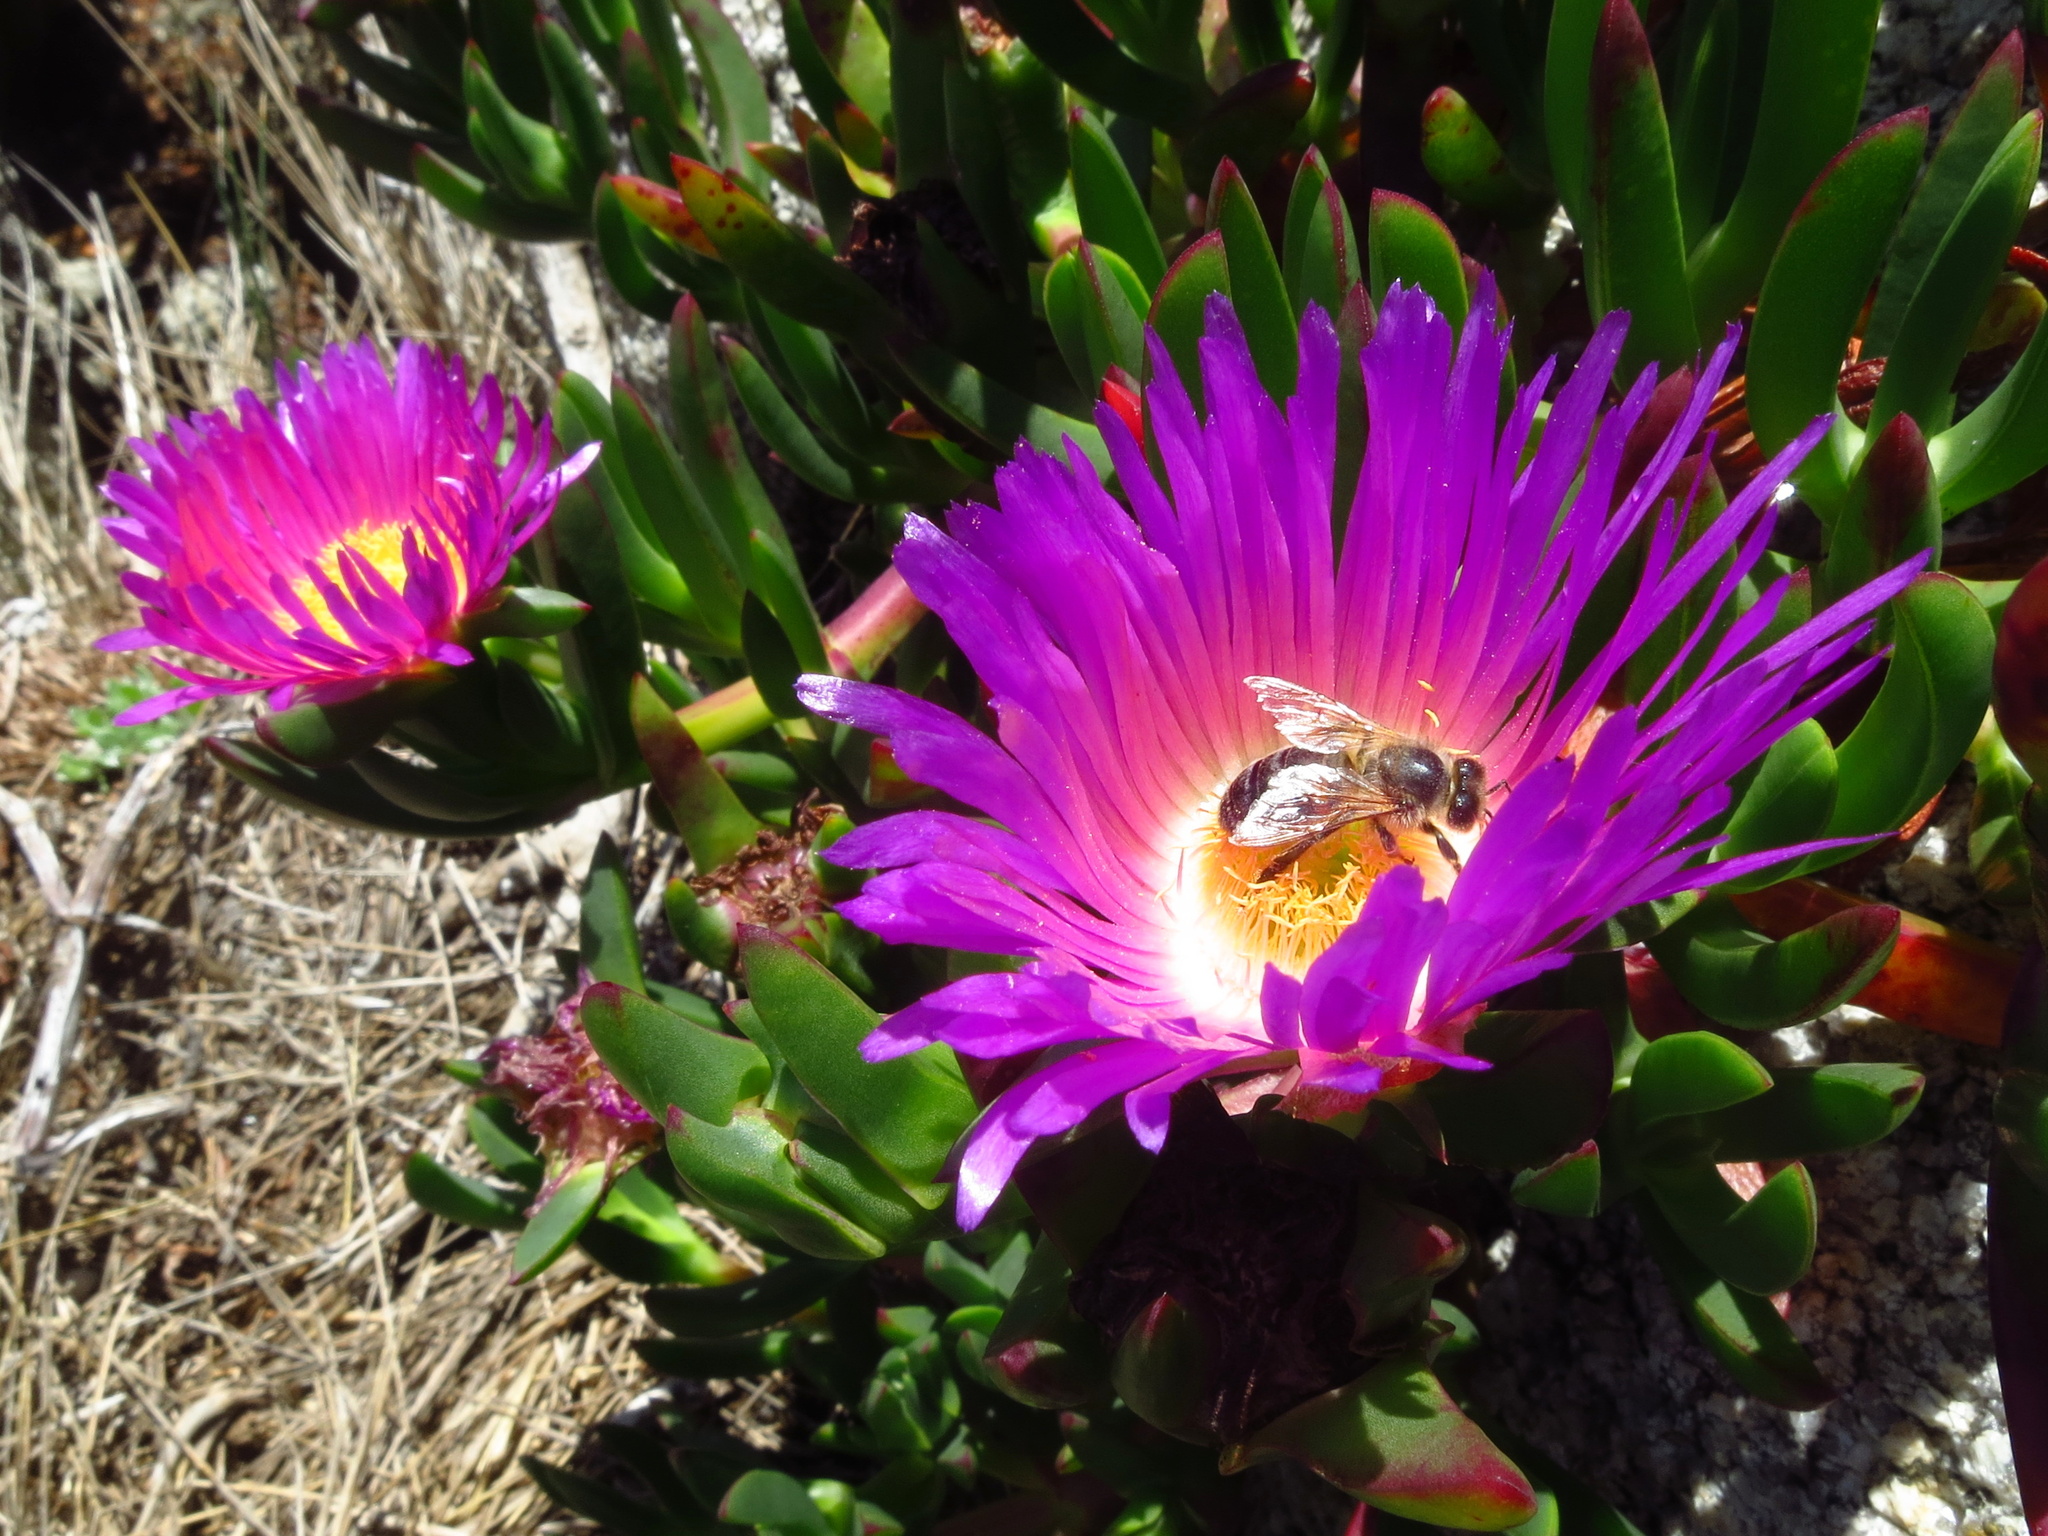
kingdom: Plantae
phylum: Tracheophyta
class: Magnoliopsida
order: Caryophyllales
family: Aizoaceae
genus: Carpobrotus
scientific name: Carpobrotus rossii
